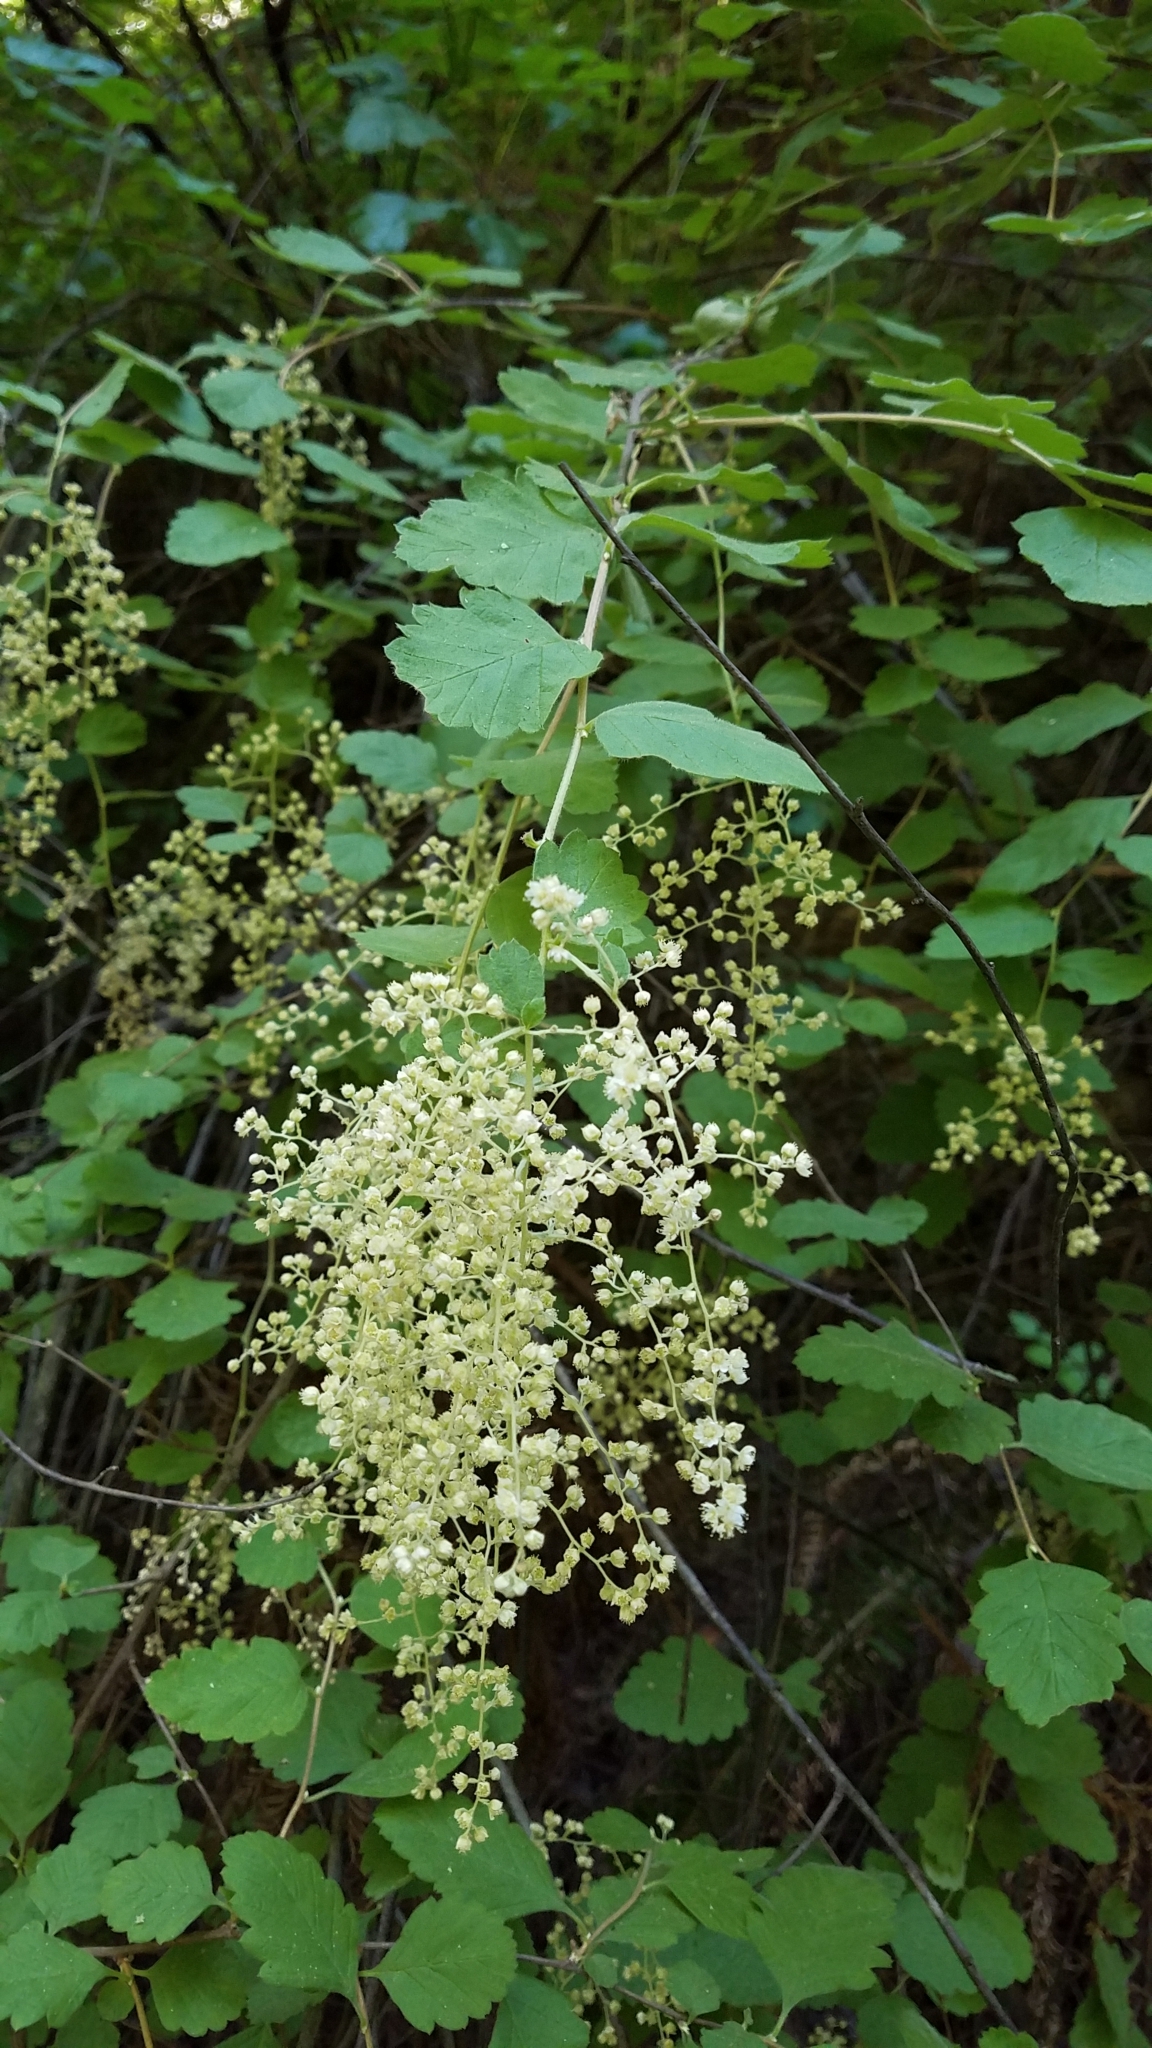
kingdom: Plantae
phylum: Tracheophyta
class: Magnoliopsida
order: Rosales
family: Rosaceae
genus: Holodiscus
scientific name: Holodiscus discolor
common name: Oceanspray
